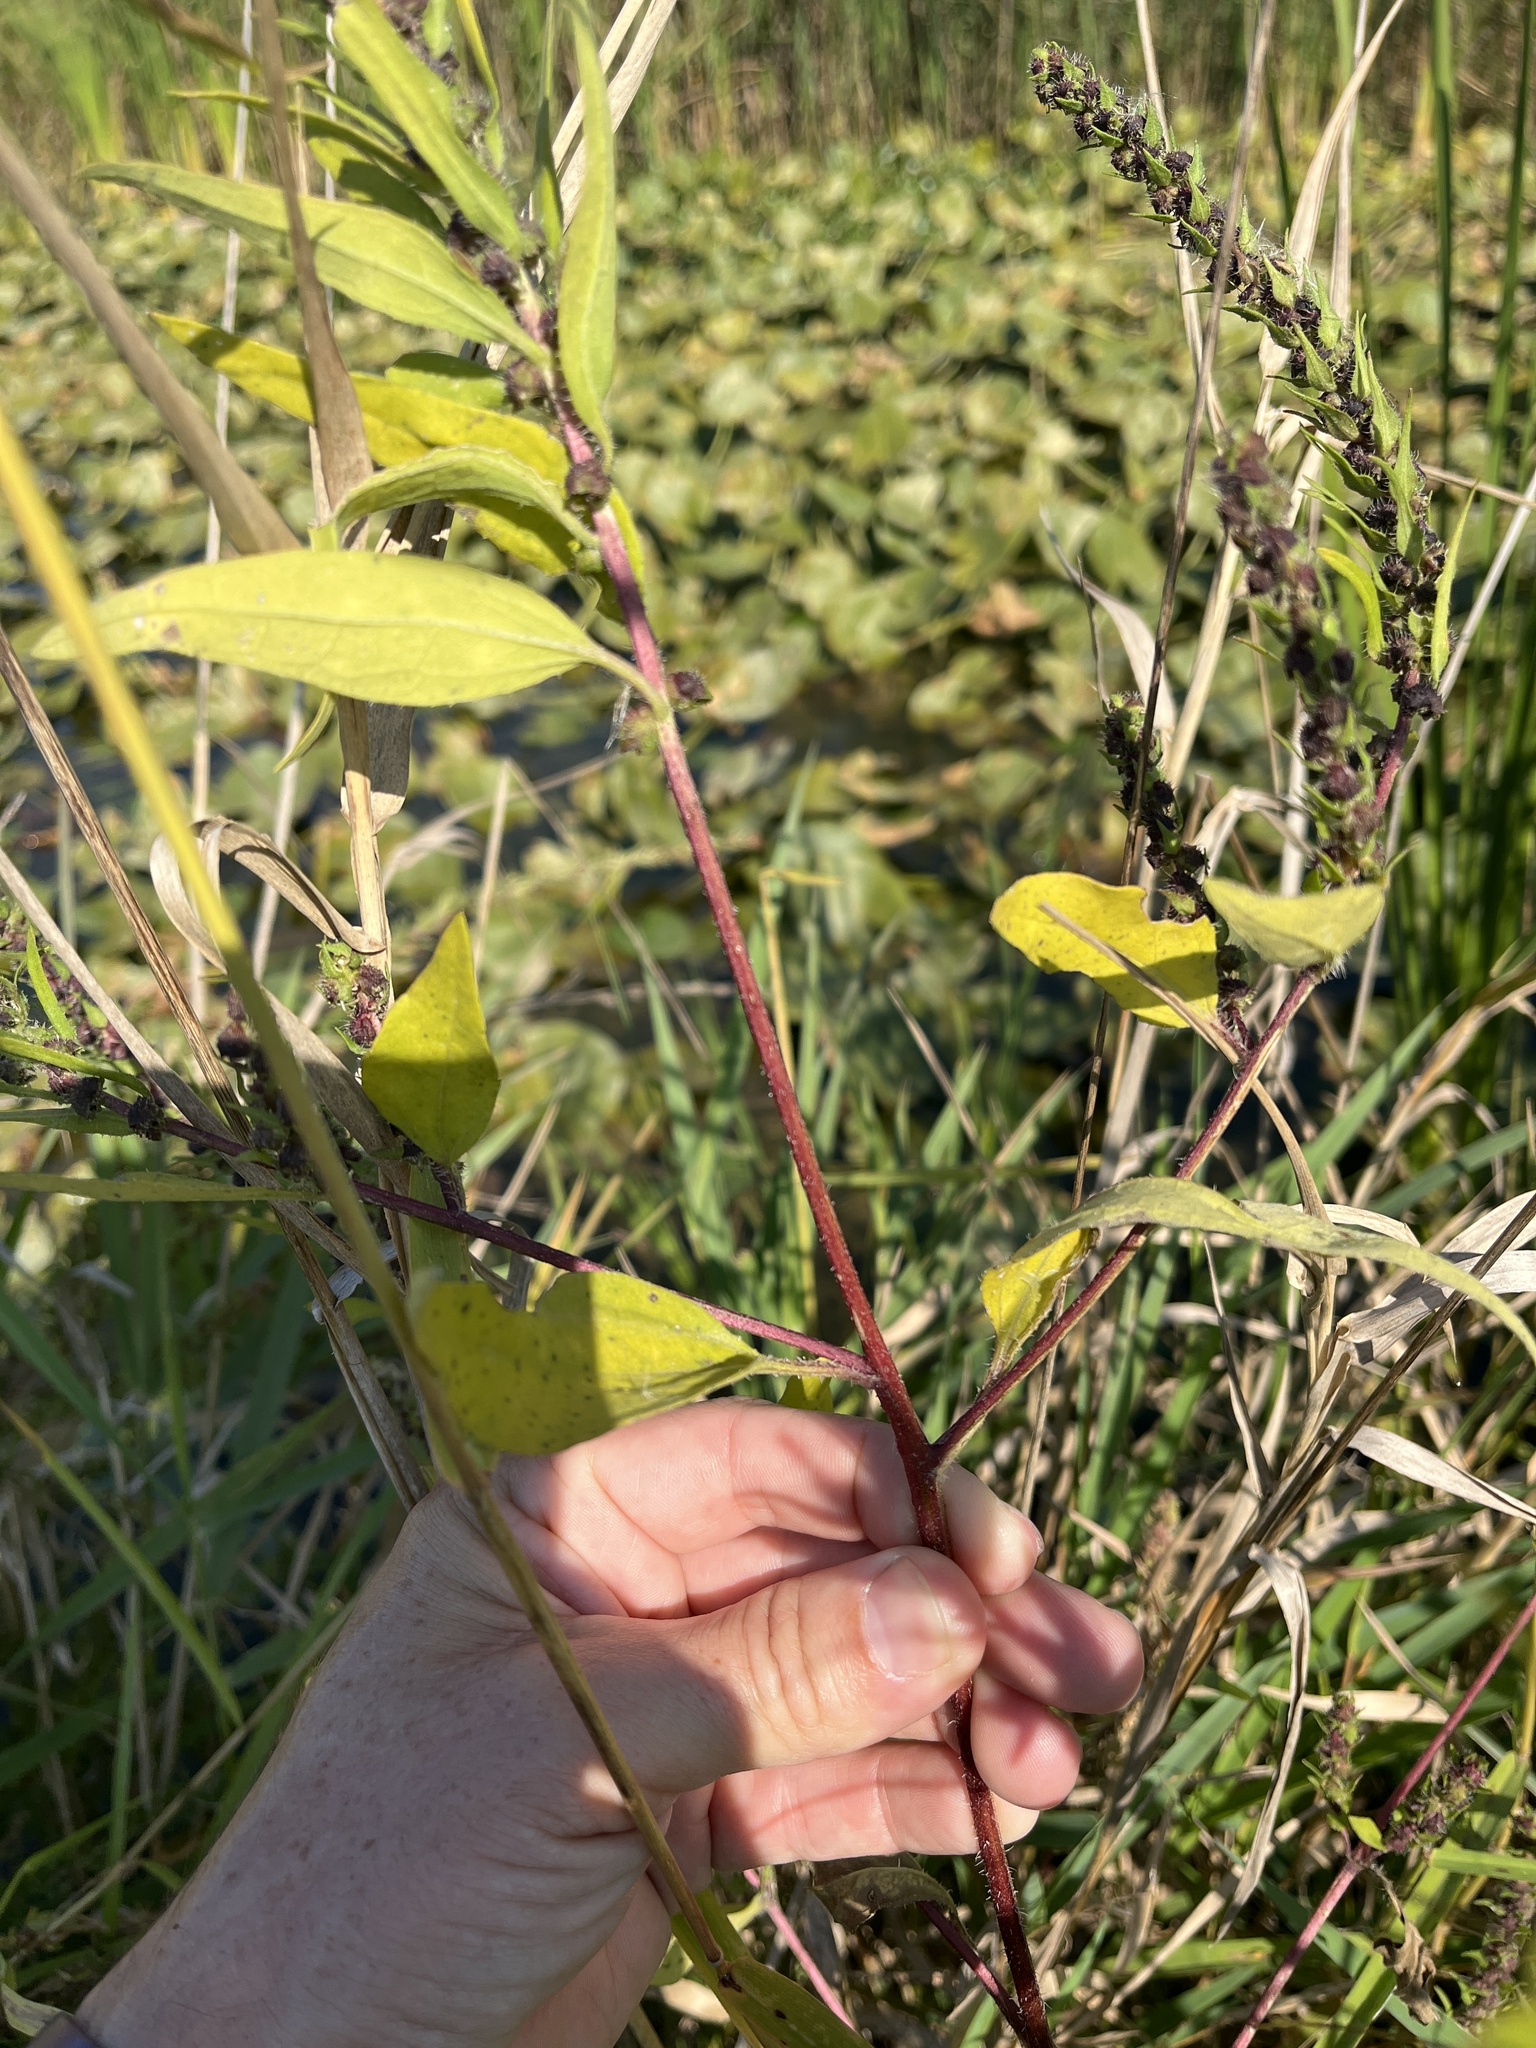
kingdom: Plantae
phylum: Tracheophyta
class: Magnoliopsida
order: Asterales
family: Asteraceae
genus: Iva
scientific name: Iva annua
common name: Marsh-elder
